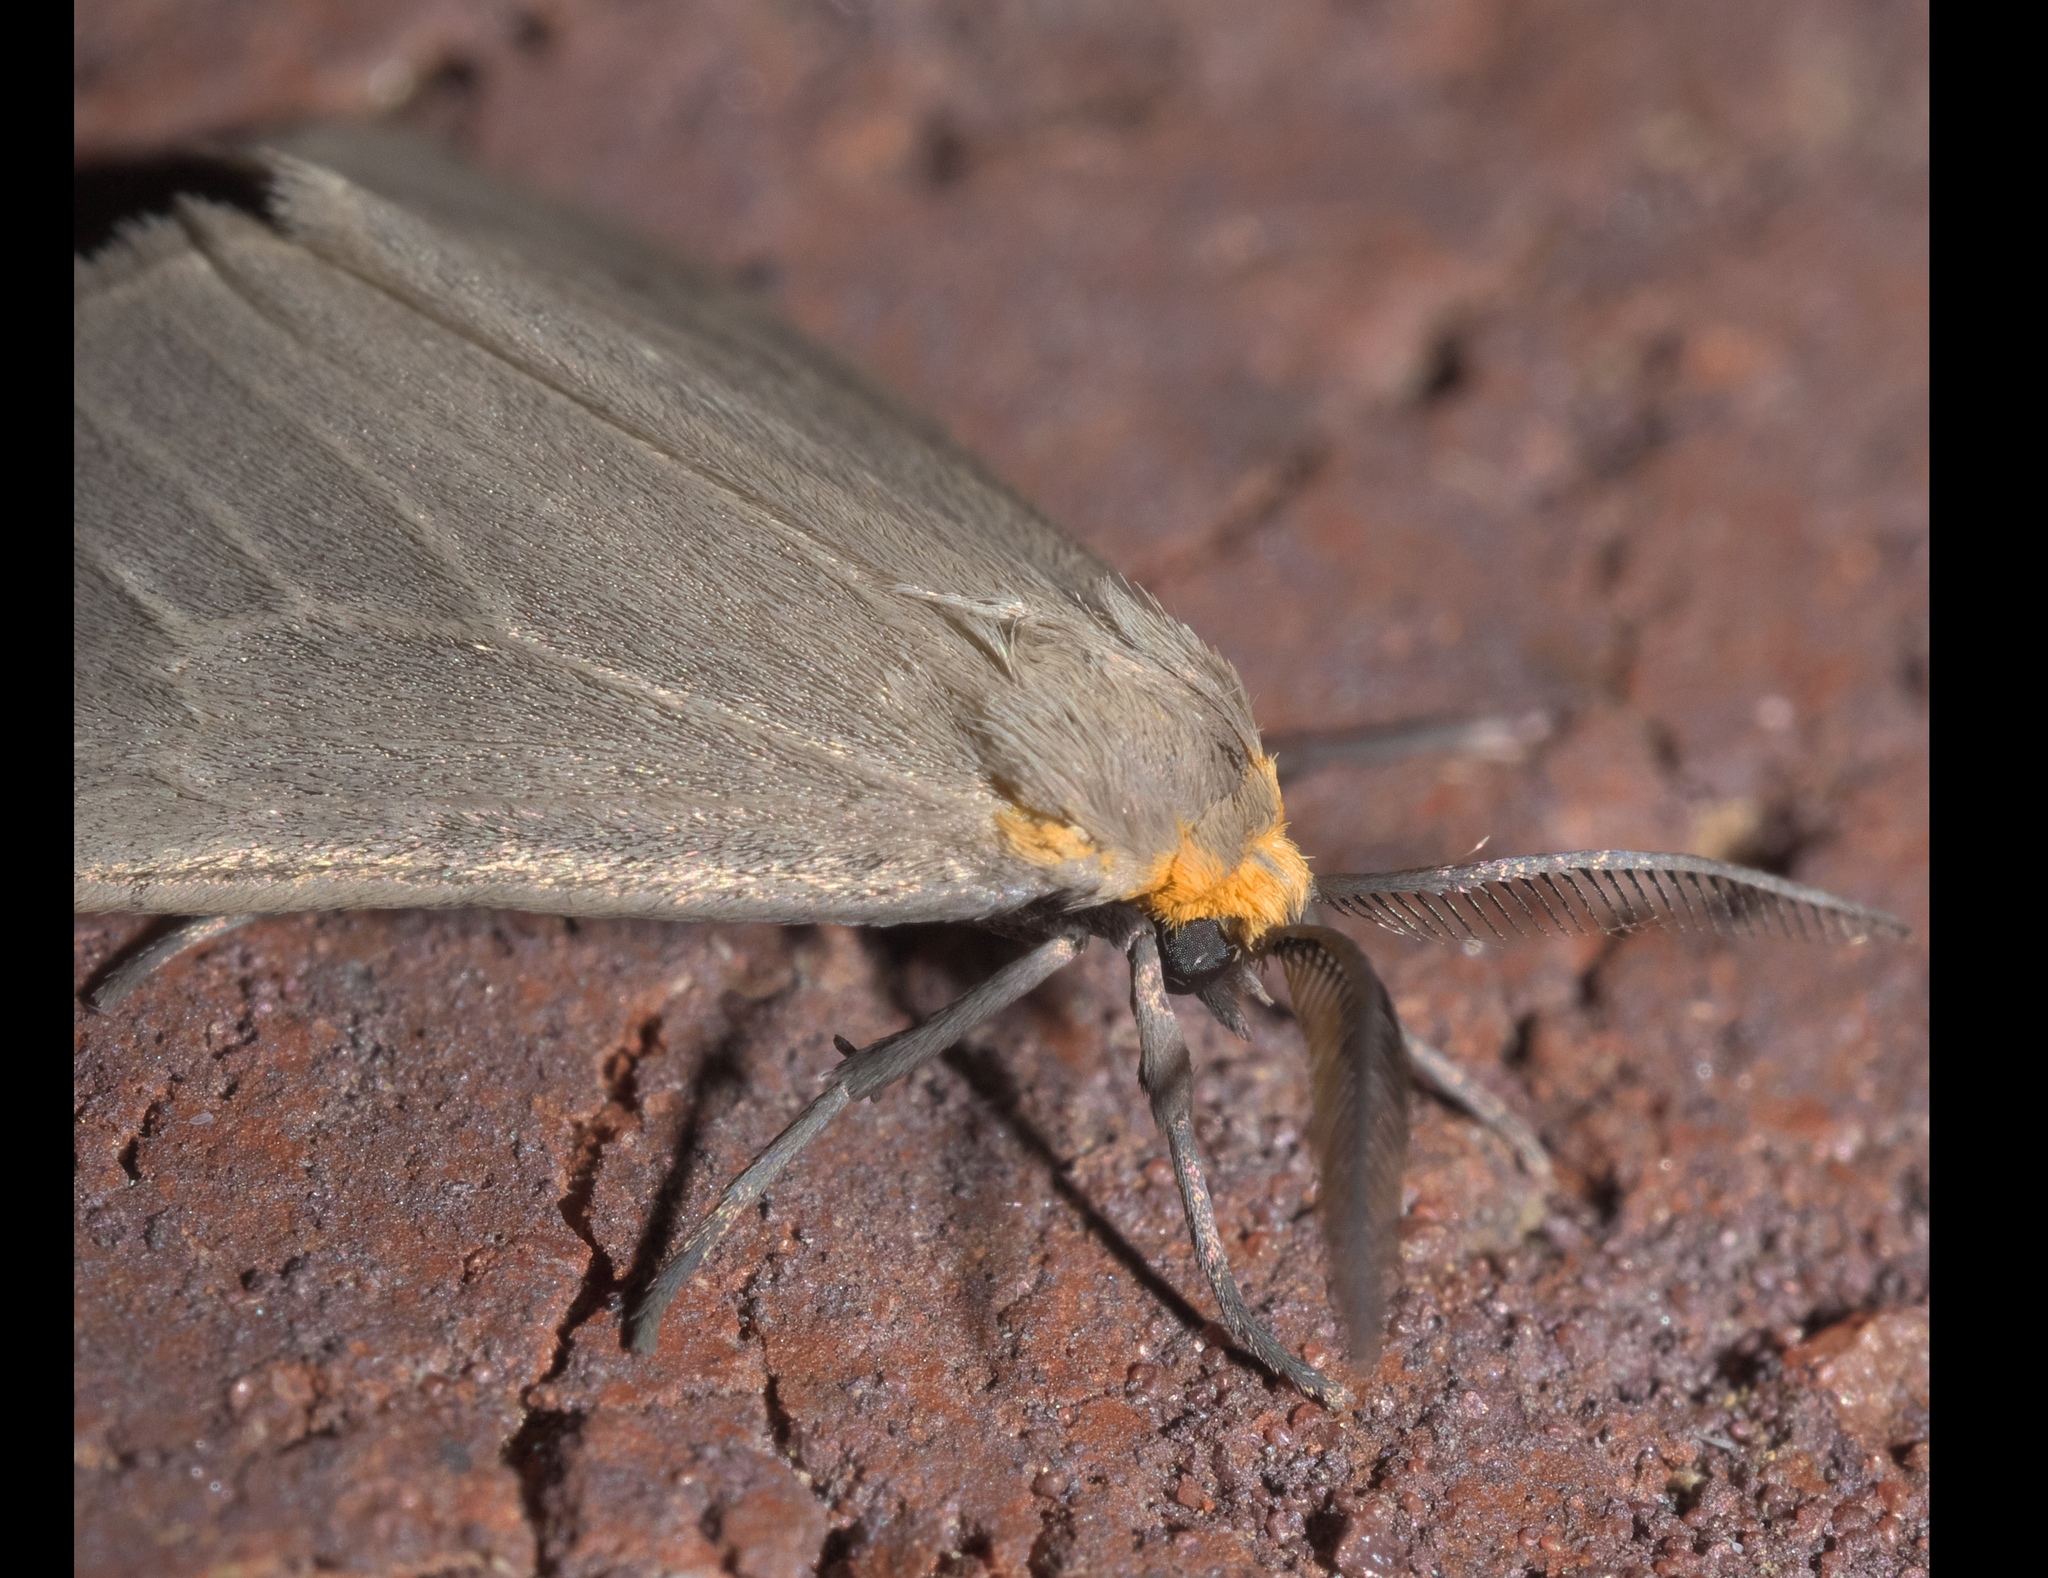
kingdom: Animalia
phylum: Arthropoda
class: Insecta
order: Lepidoptera
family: Erebidae
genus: Pagara
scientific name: Pagara simplex
